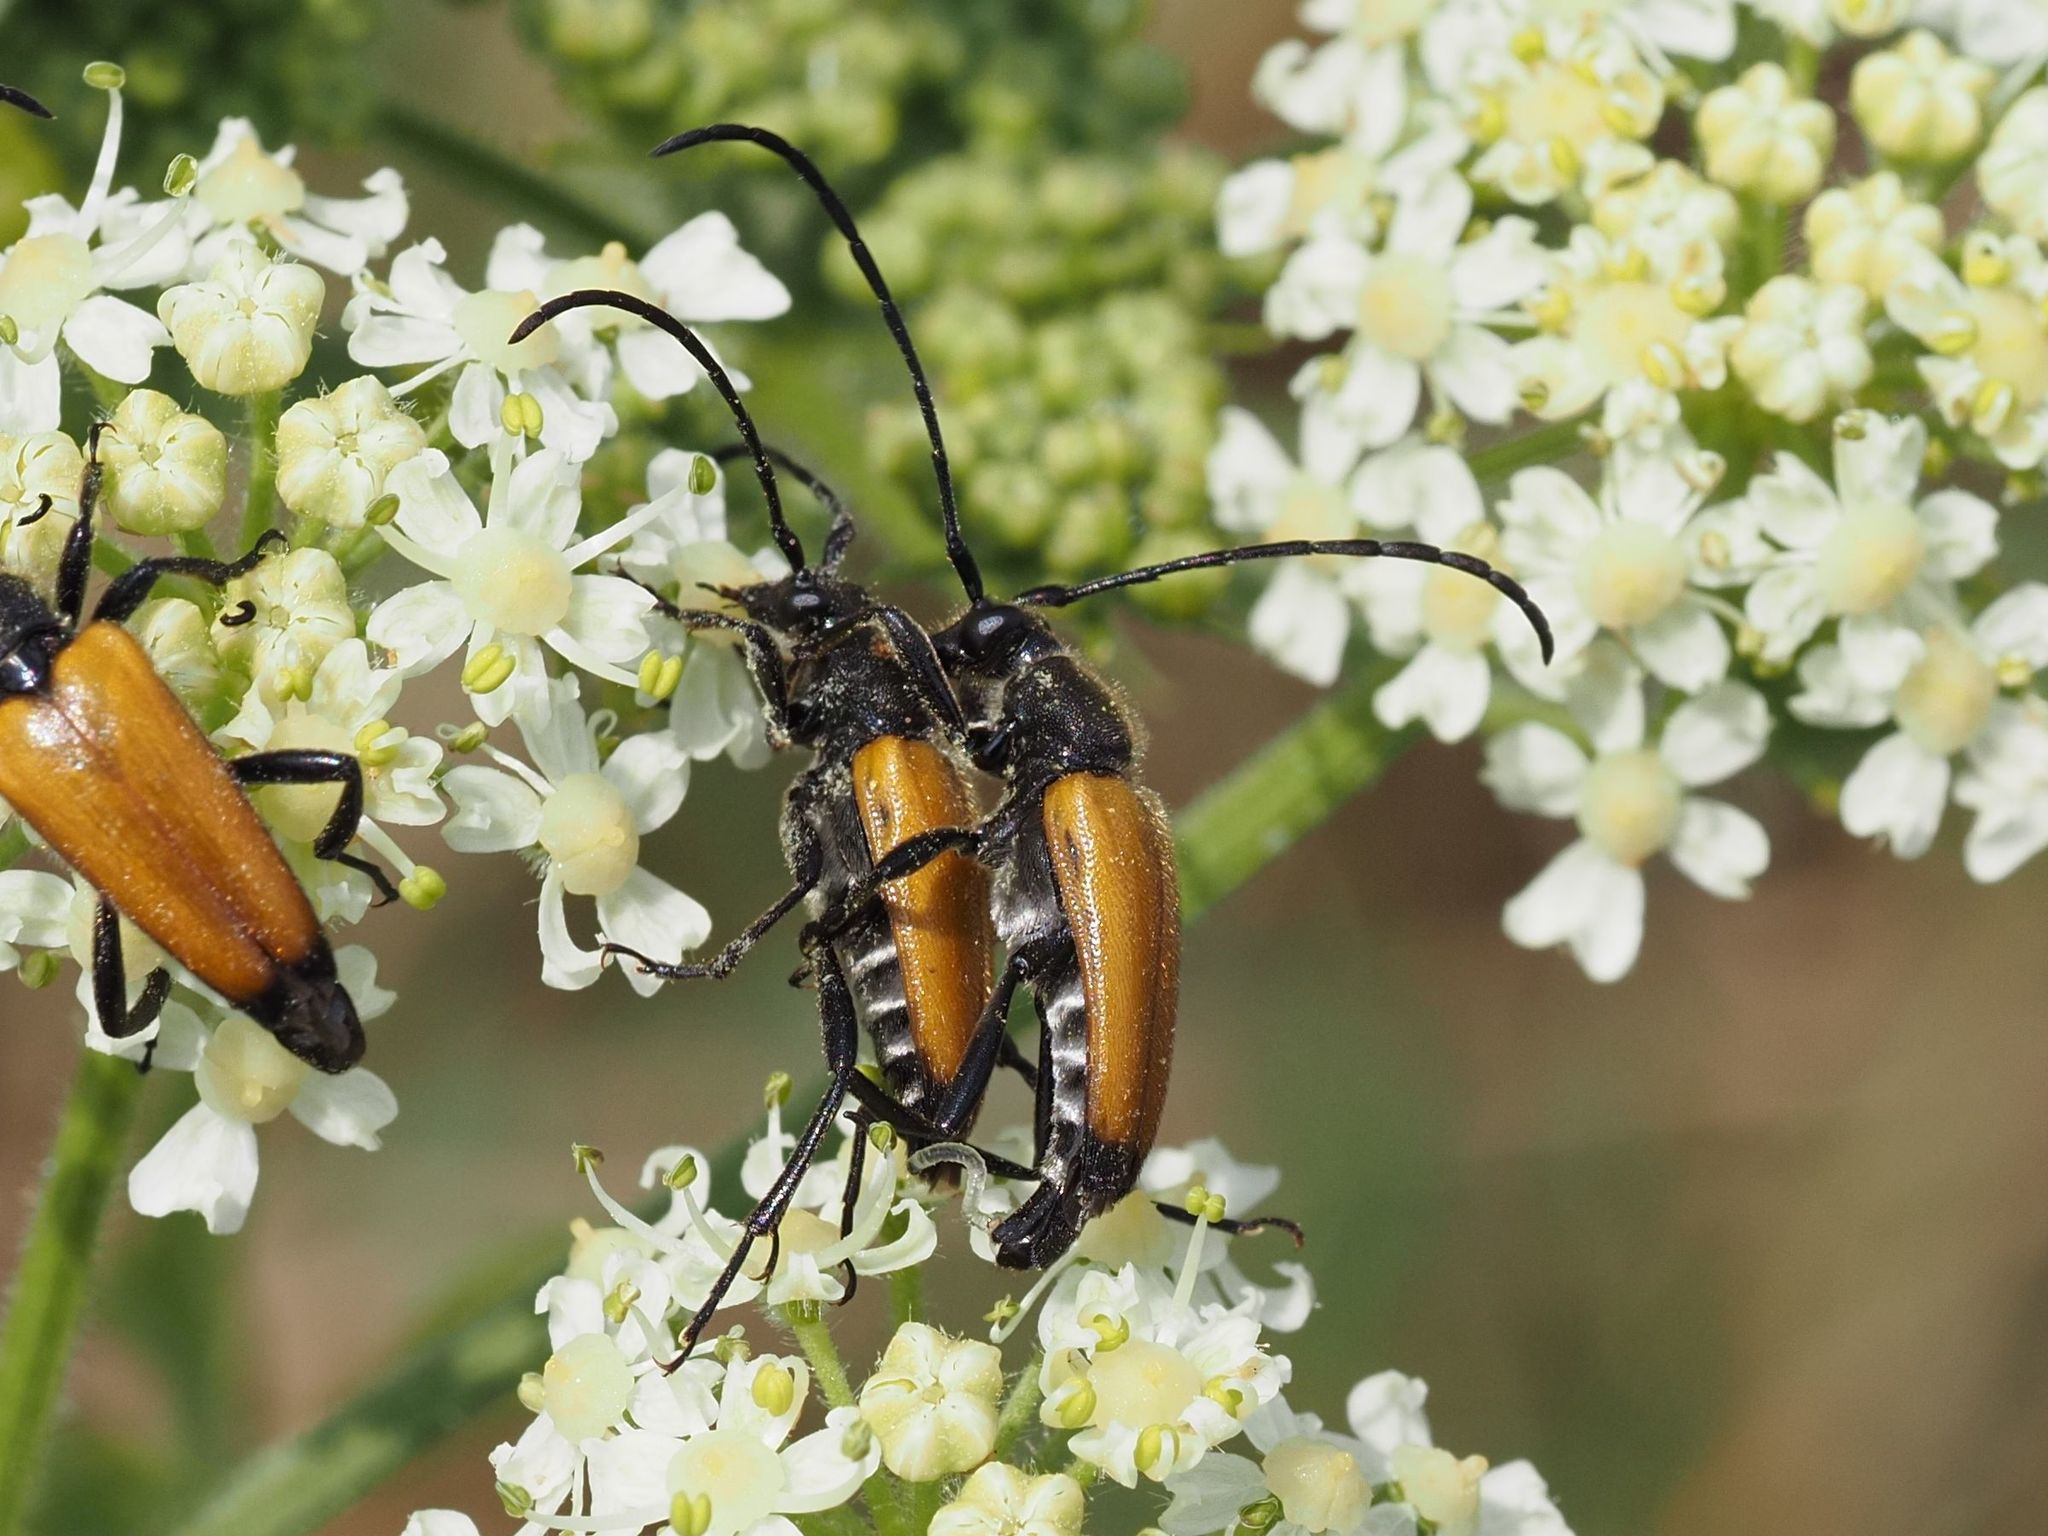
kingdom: Animalia
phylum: Arthropoda
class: Insecta
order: Coleoptera
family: Cerambycidae
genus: Paracorymbia
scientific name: Paracorymbia fulva
